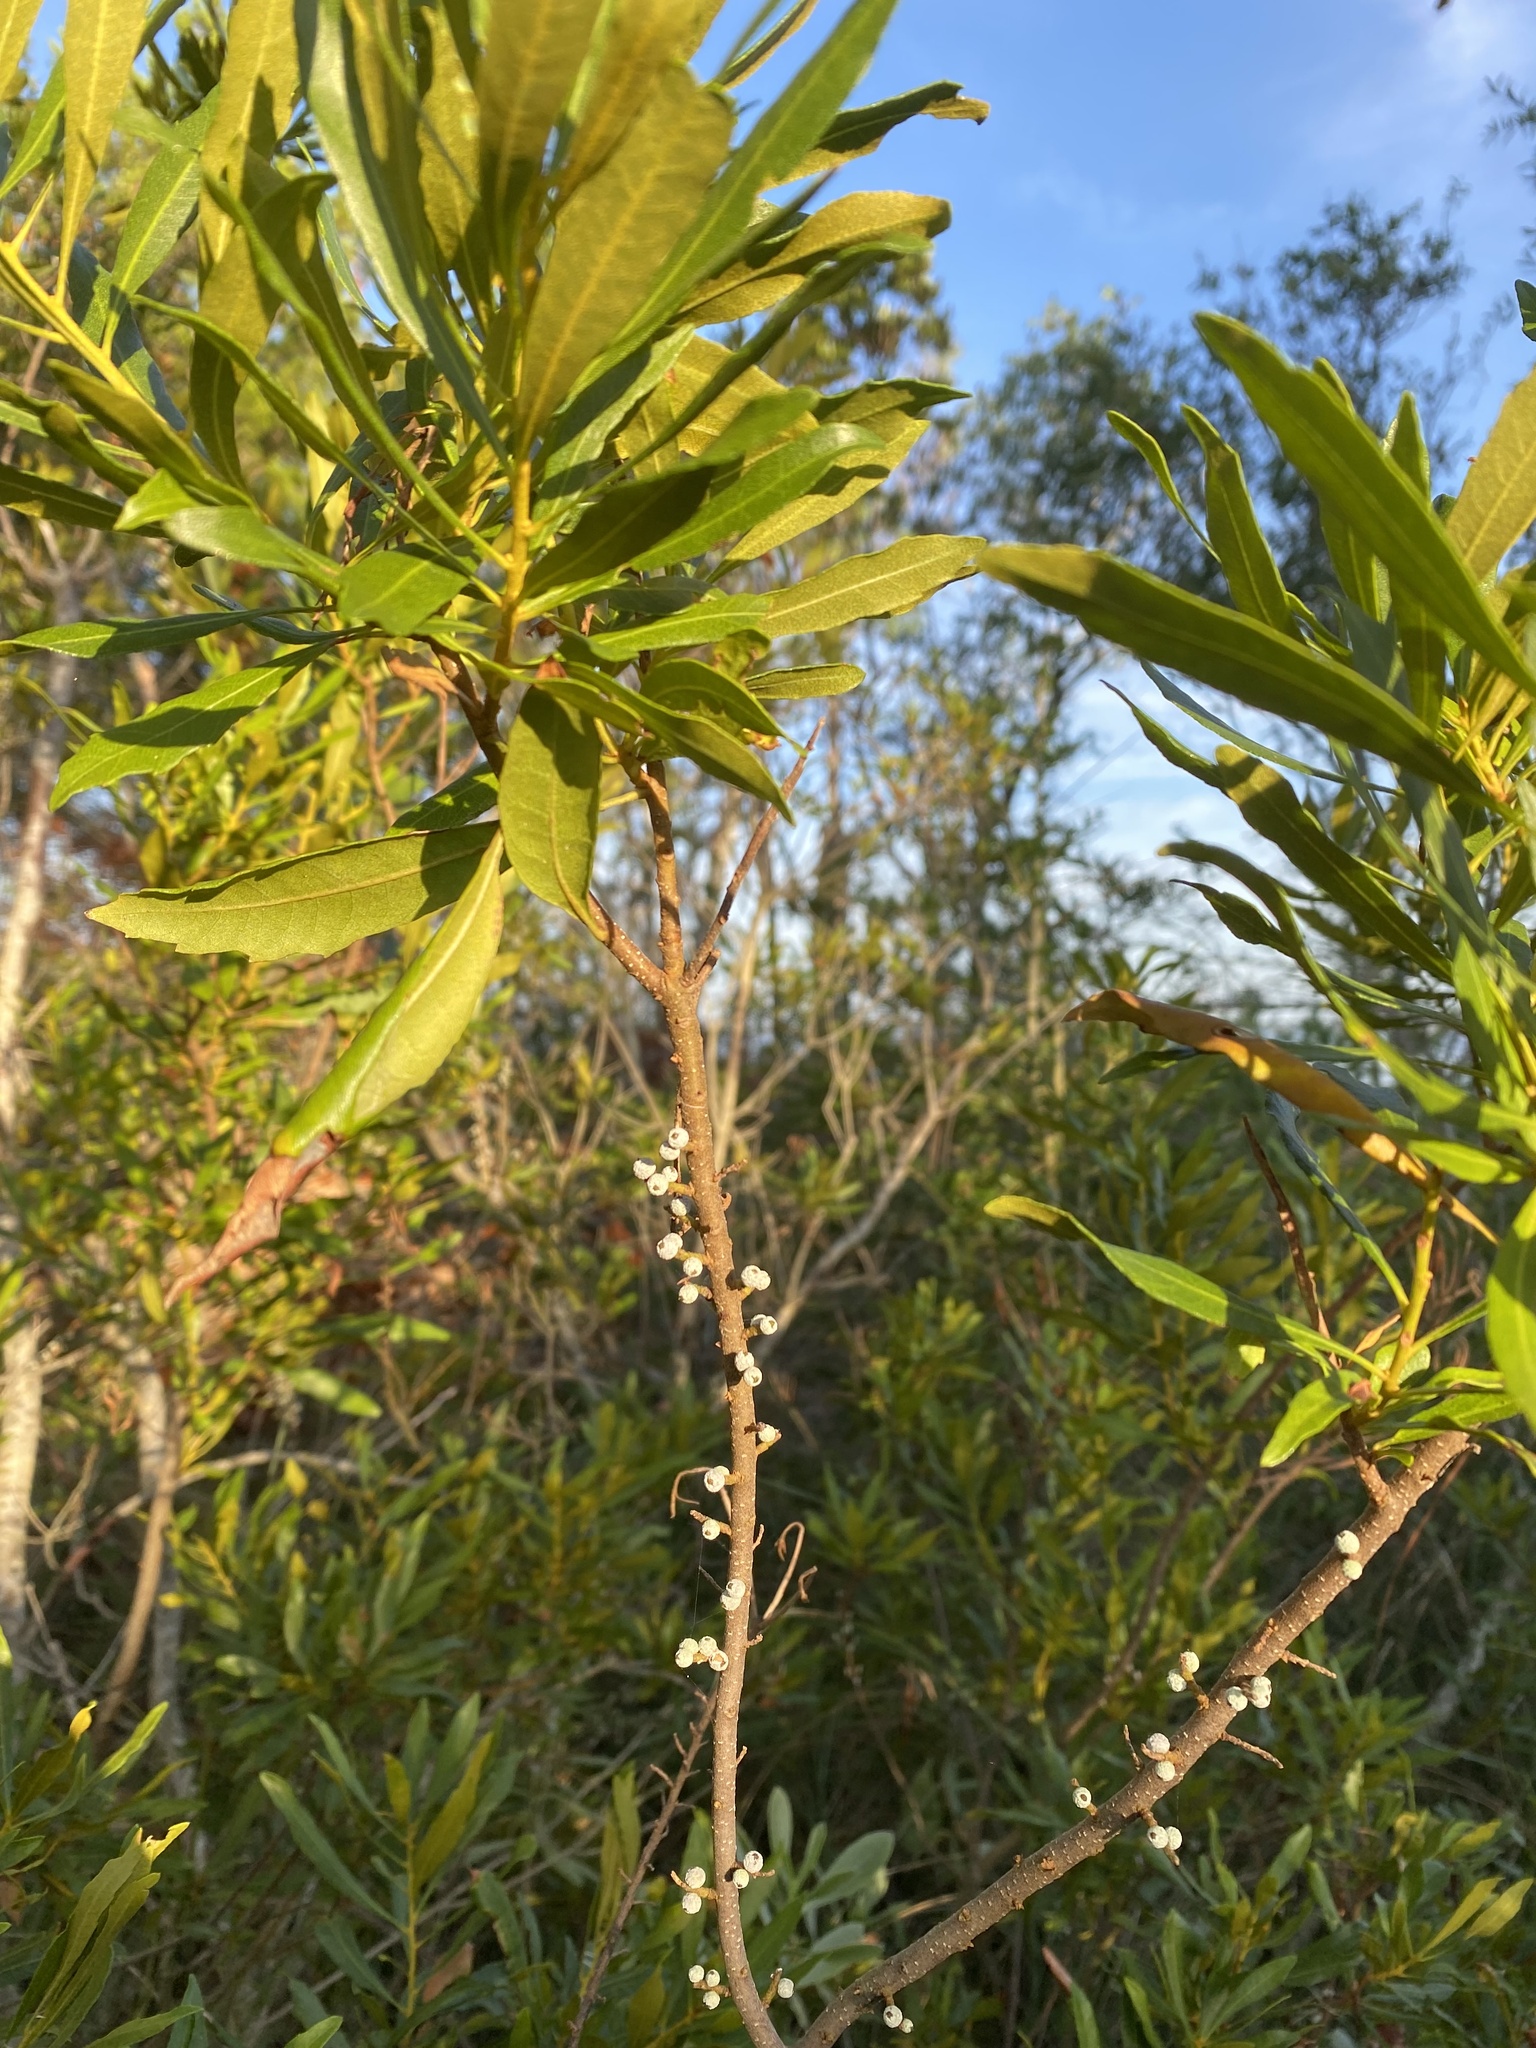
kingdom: Plantae
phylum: Tracheophyta
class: Magnoliopsida
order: Fagales
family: Myricaceae
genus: Morella
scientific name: Morella cerifera
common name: Wax myrtle
